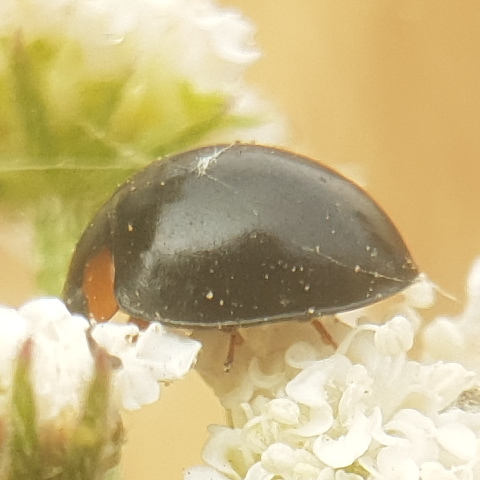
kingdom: Animalia
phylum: Arthropoda
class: Insecta
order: Coleoptera
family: Coccinellidae
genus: Parexochomus
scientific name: Parexochomus nigromaculatus
